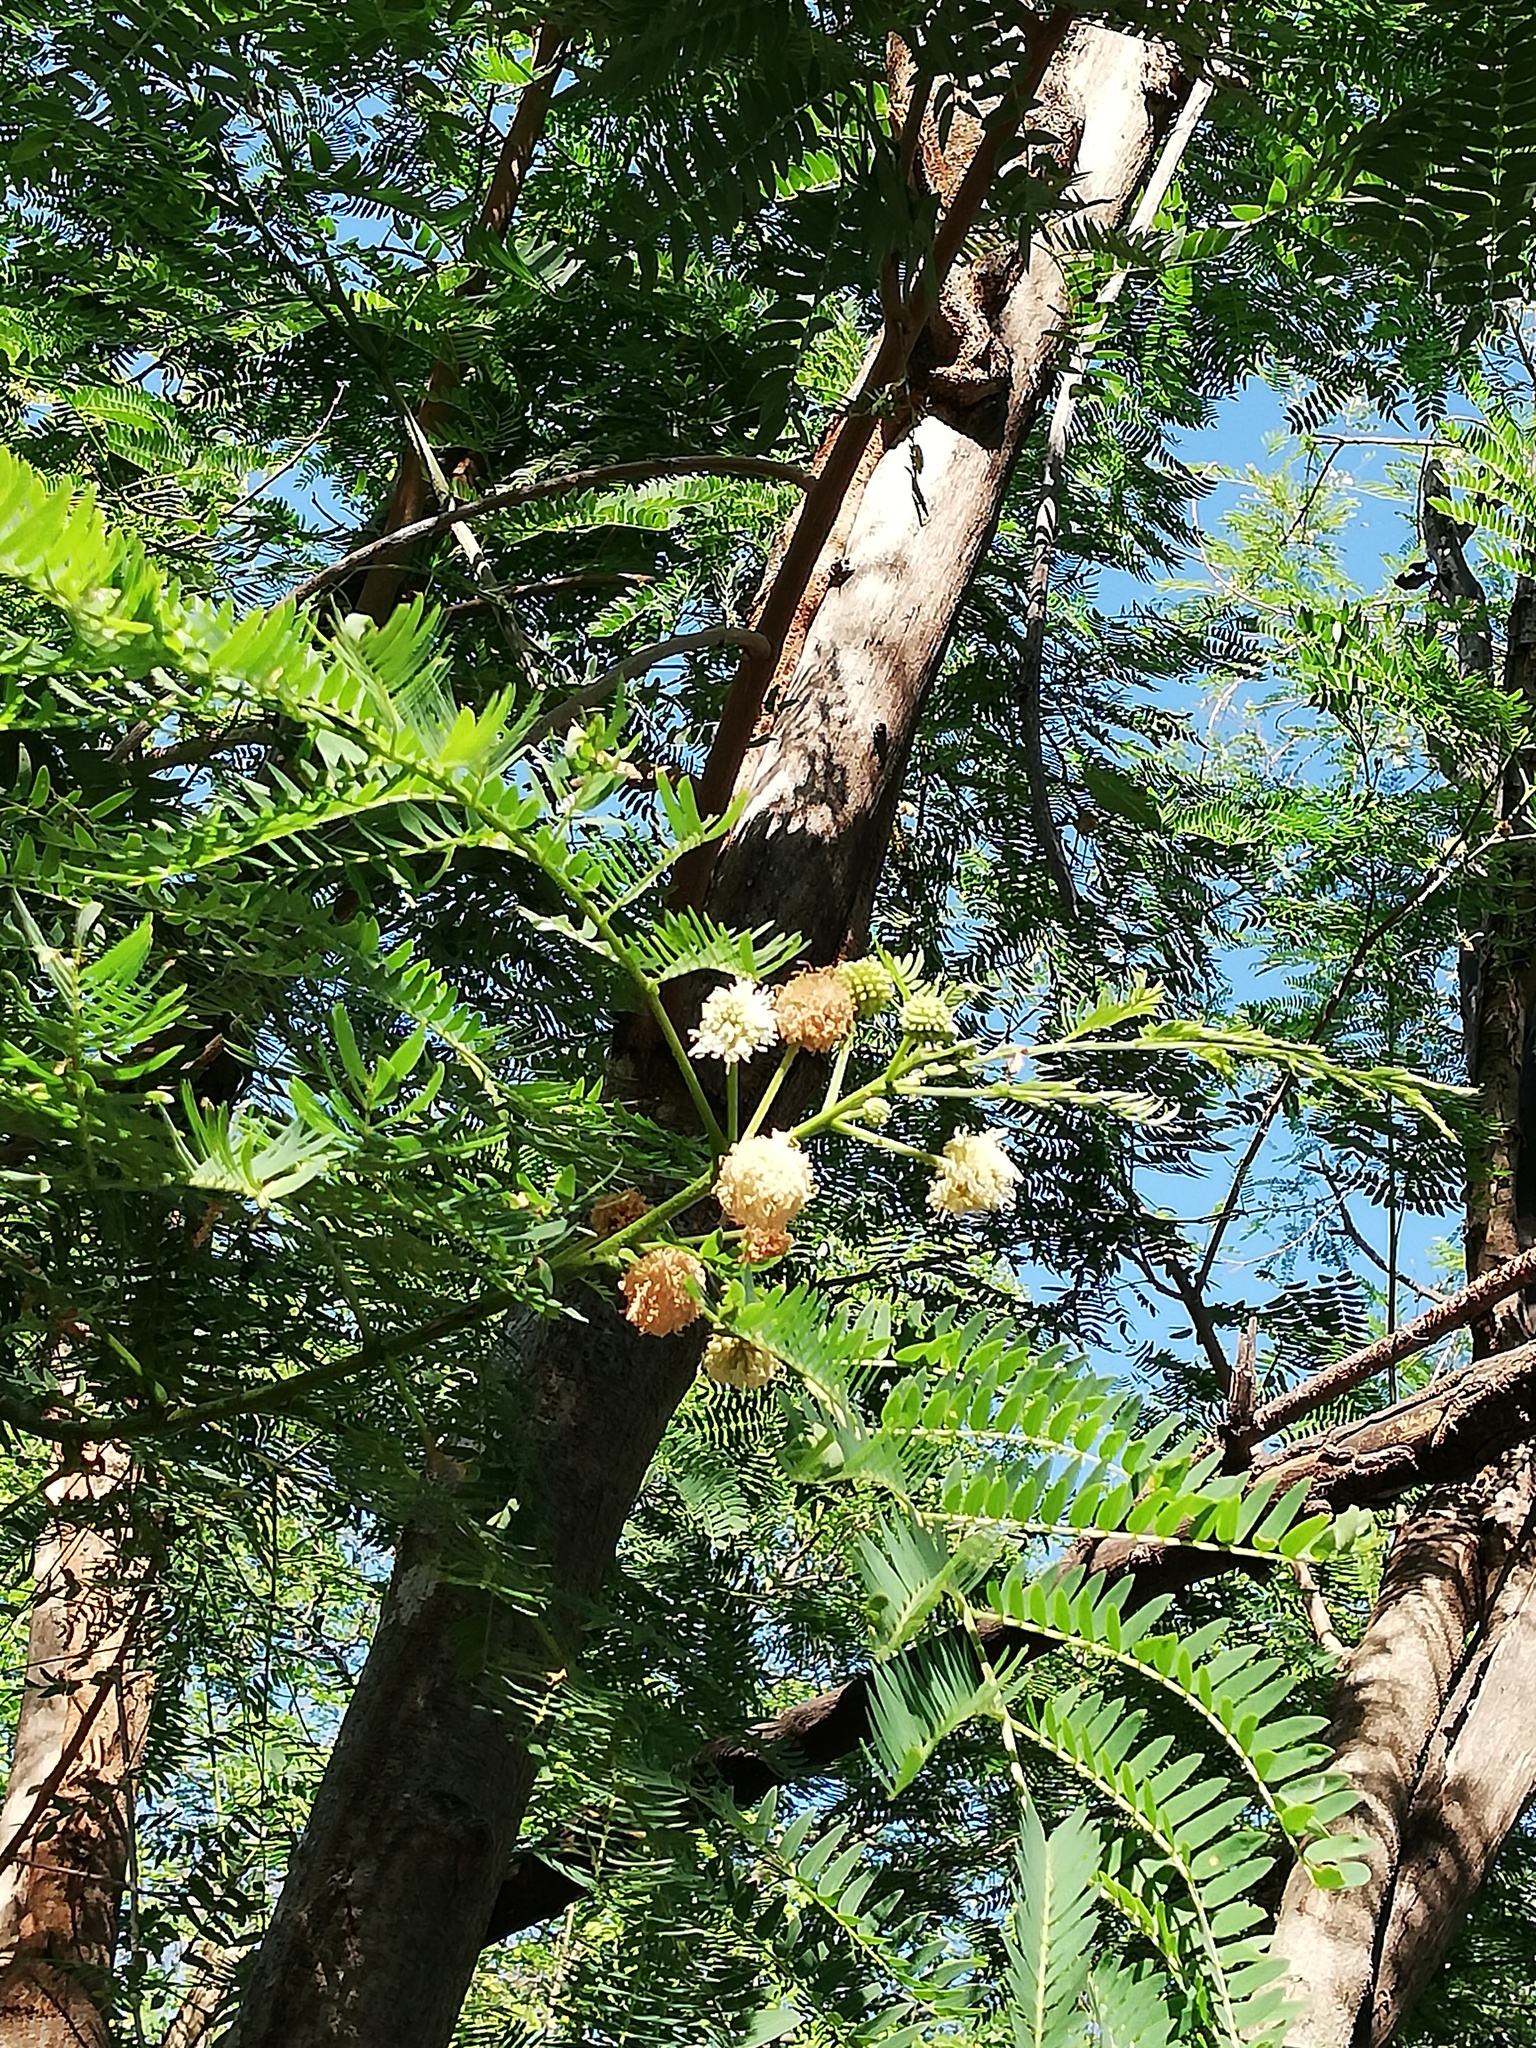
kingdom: Plantae
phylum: Tracheophyta
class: Magnoliopsida
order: Fabales
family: Fabaceae
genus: Leucaena
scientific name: Leucaena leucocephala
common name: White leadtree
